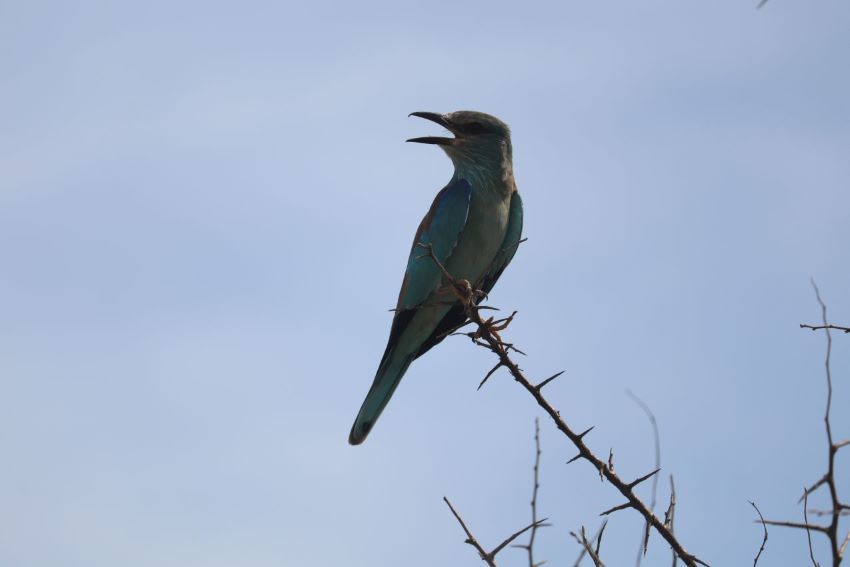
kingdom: Animalia
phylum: Chordata
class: Aves
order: Coraciiformes
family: Coraciidae
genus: Coracias
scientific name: Coracias garrulus
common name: European roller
